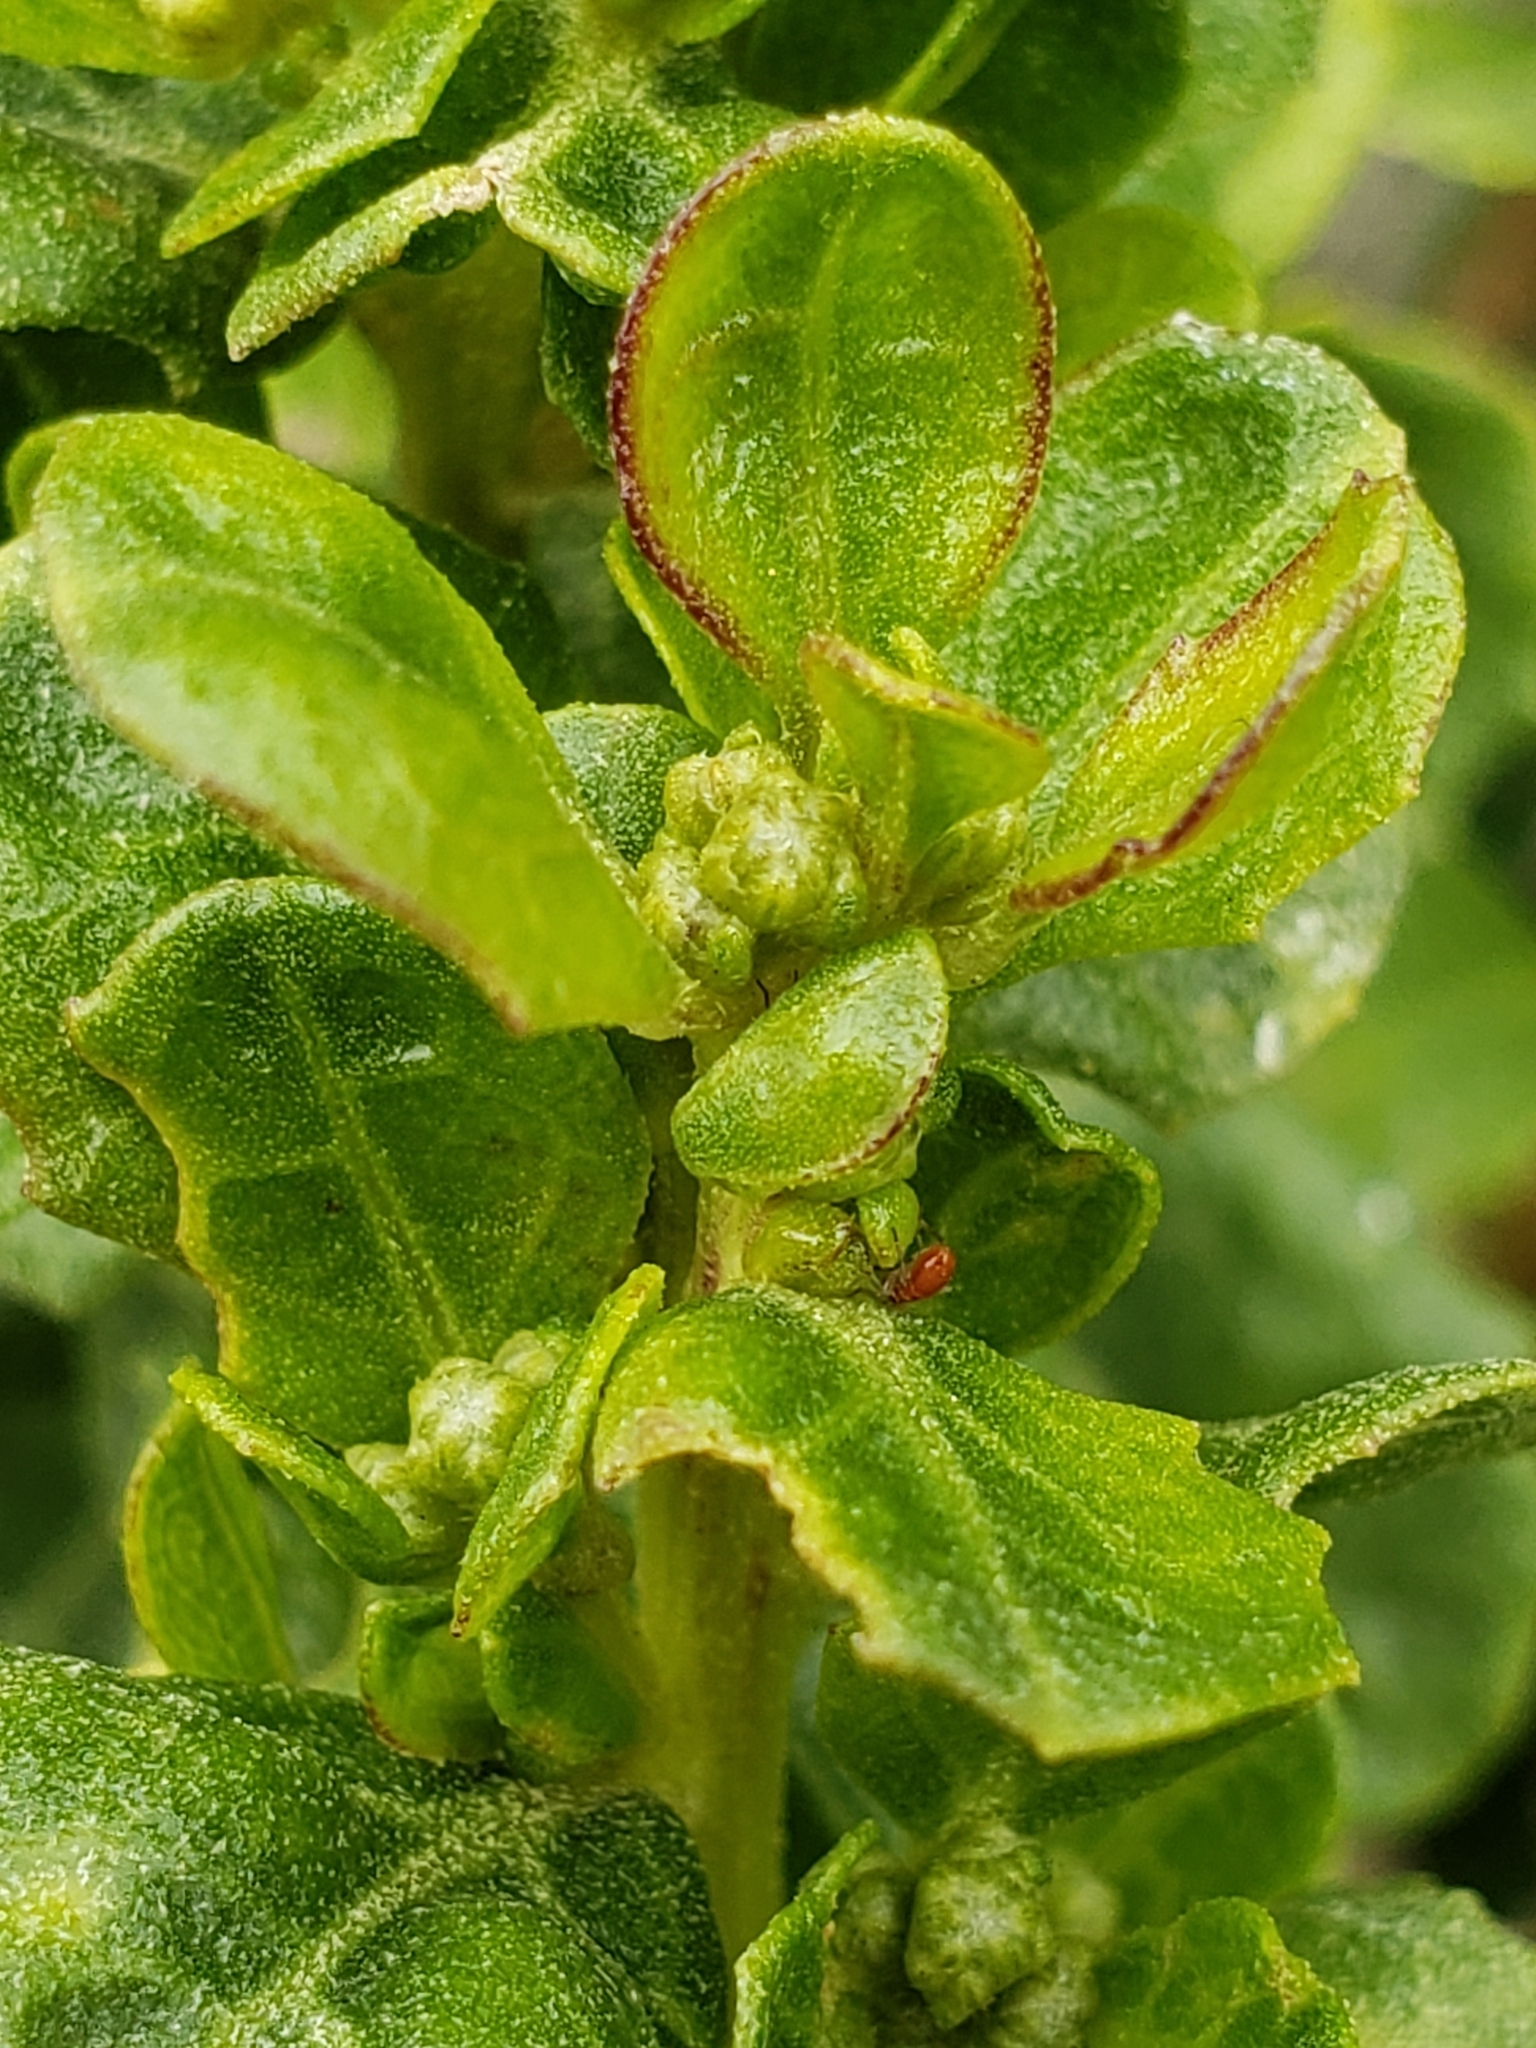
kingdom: Plantae
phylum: Tracheophyta
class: Magnoliopsida
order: Asterales
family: Asteraceae
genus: Baccharis
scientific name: Baccharis pilularis
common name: Coyotebrush
